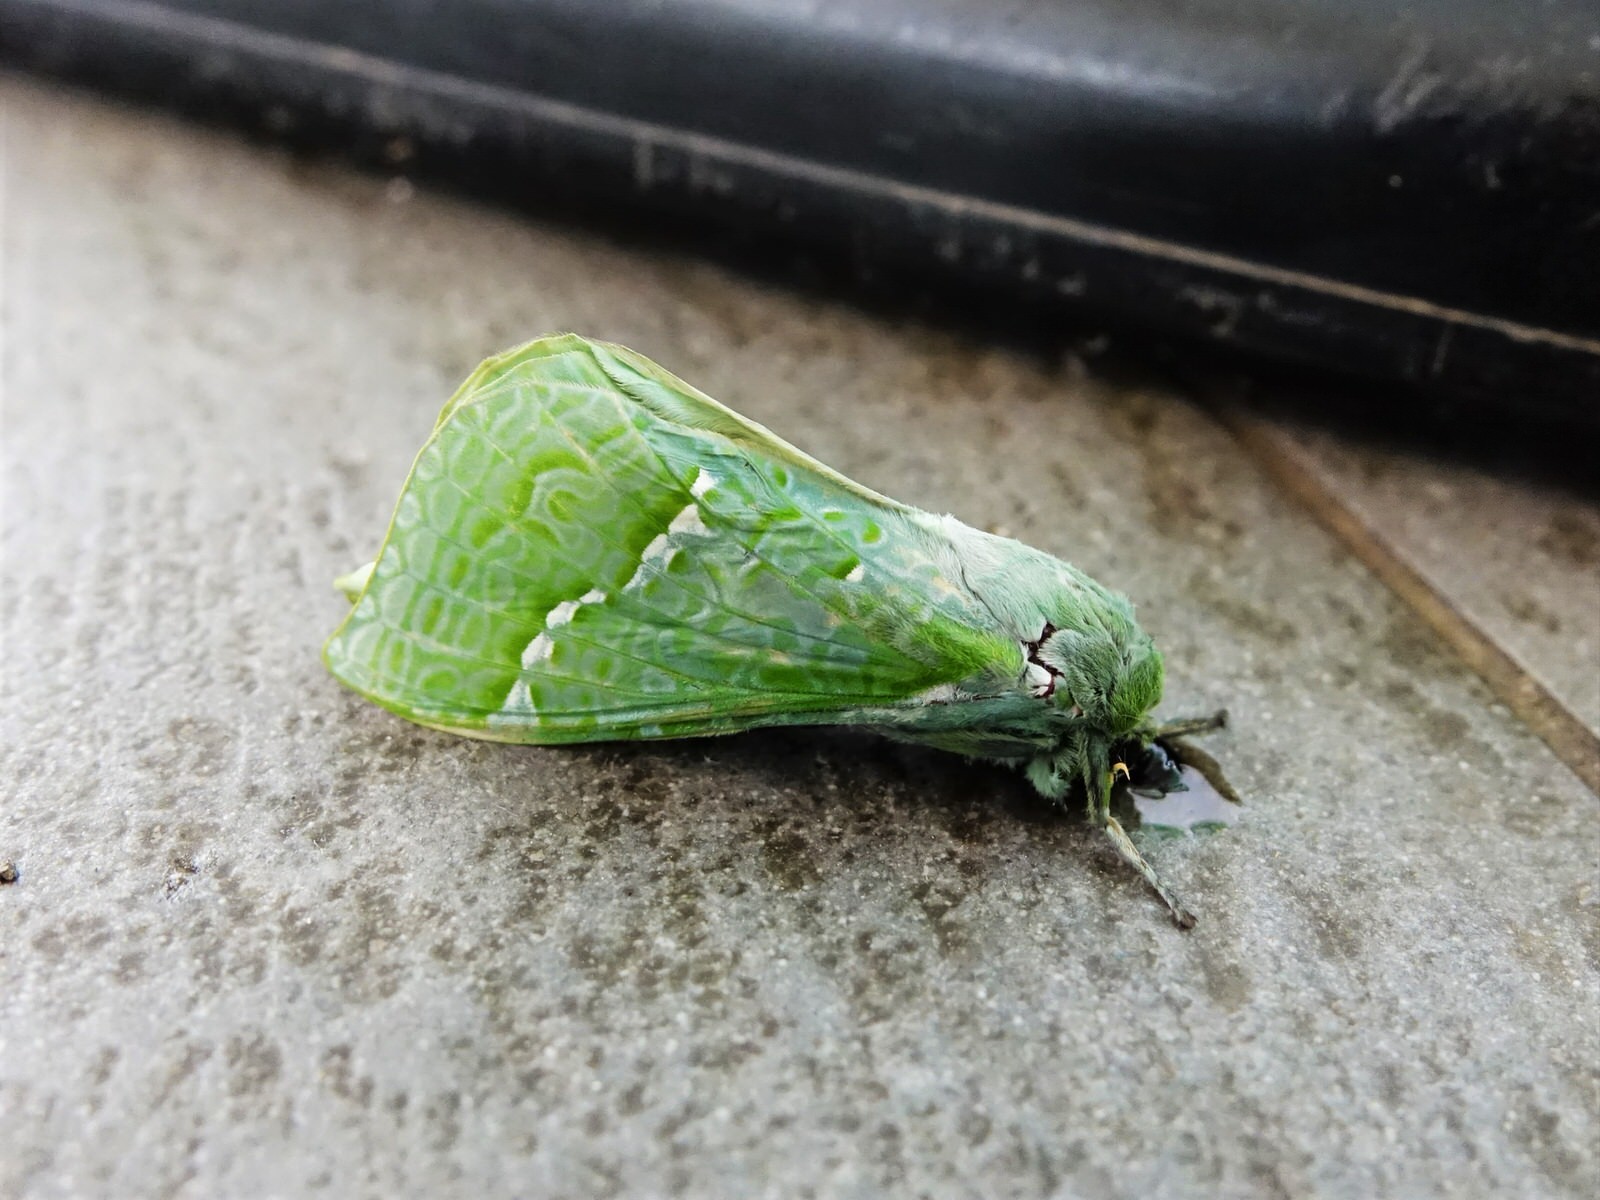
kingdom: Animalia
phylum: Arthropoda
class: Insecta
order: Lepidoptera
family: Hepialidae
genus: Aenetus
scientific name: Aenetus virescens
